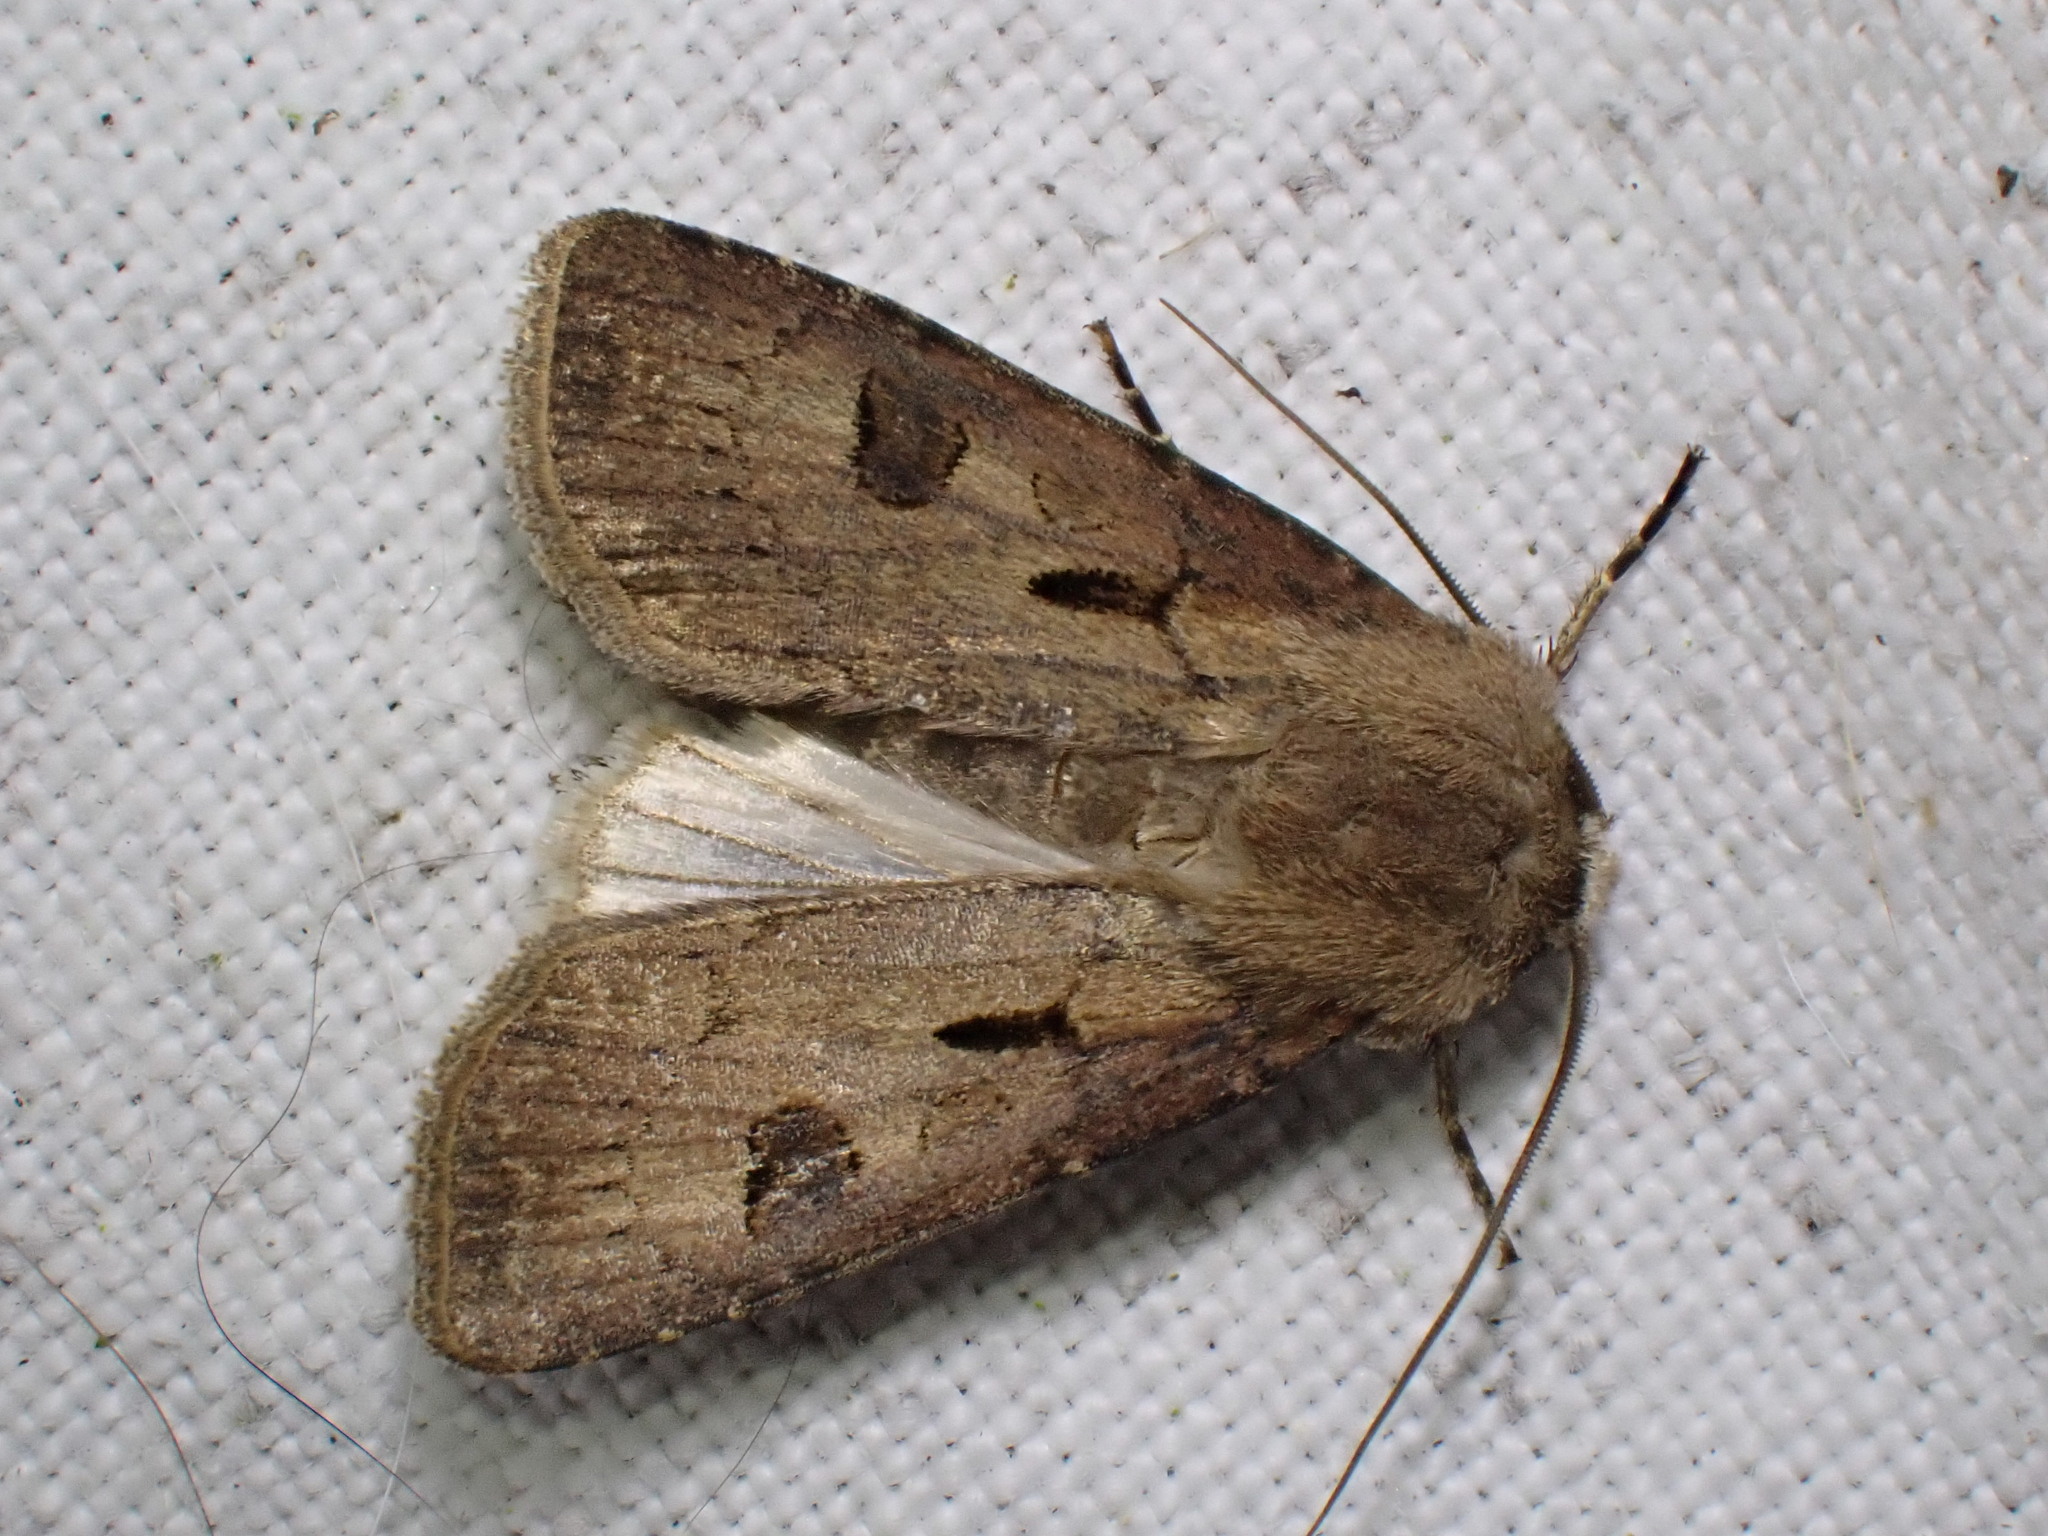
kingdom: Animalia
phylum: Arthropoda
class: Insecta
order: Lepidoptera
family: Noctuidae
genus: Agrotis
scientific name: Agrotis exclamationis
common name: Heart and dart
